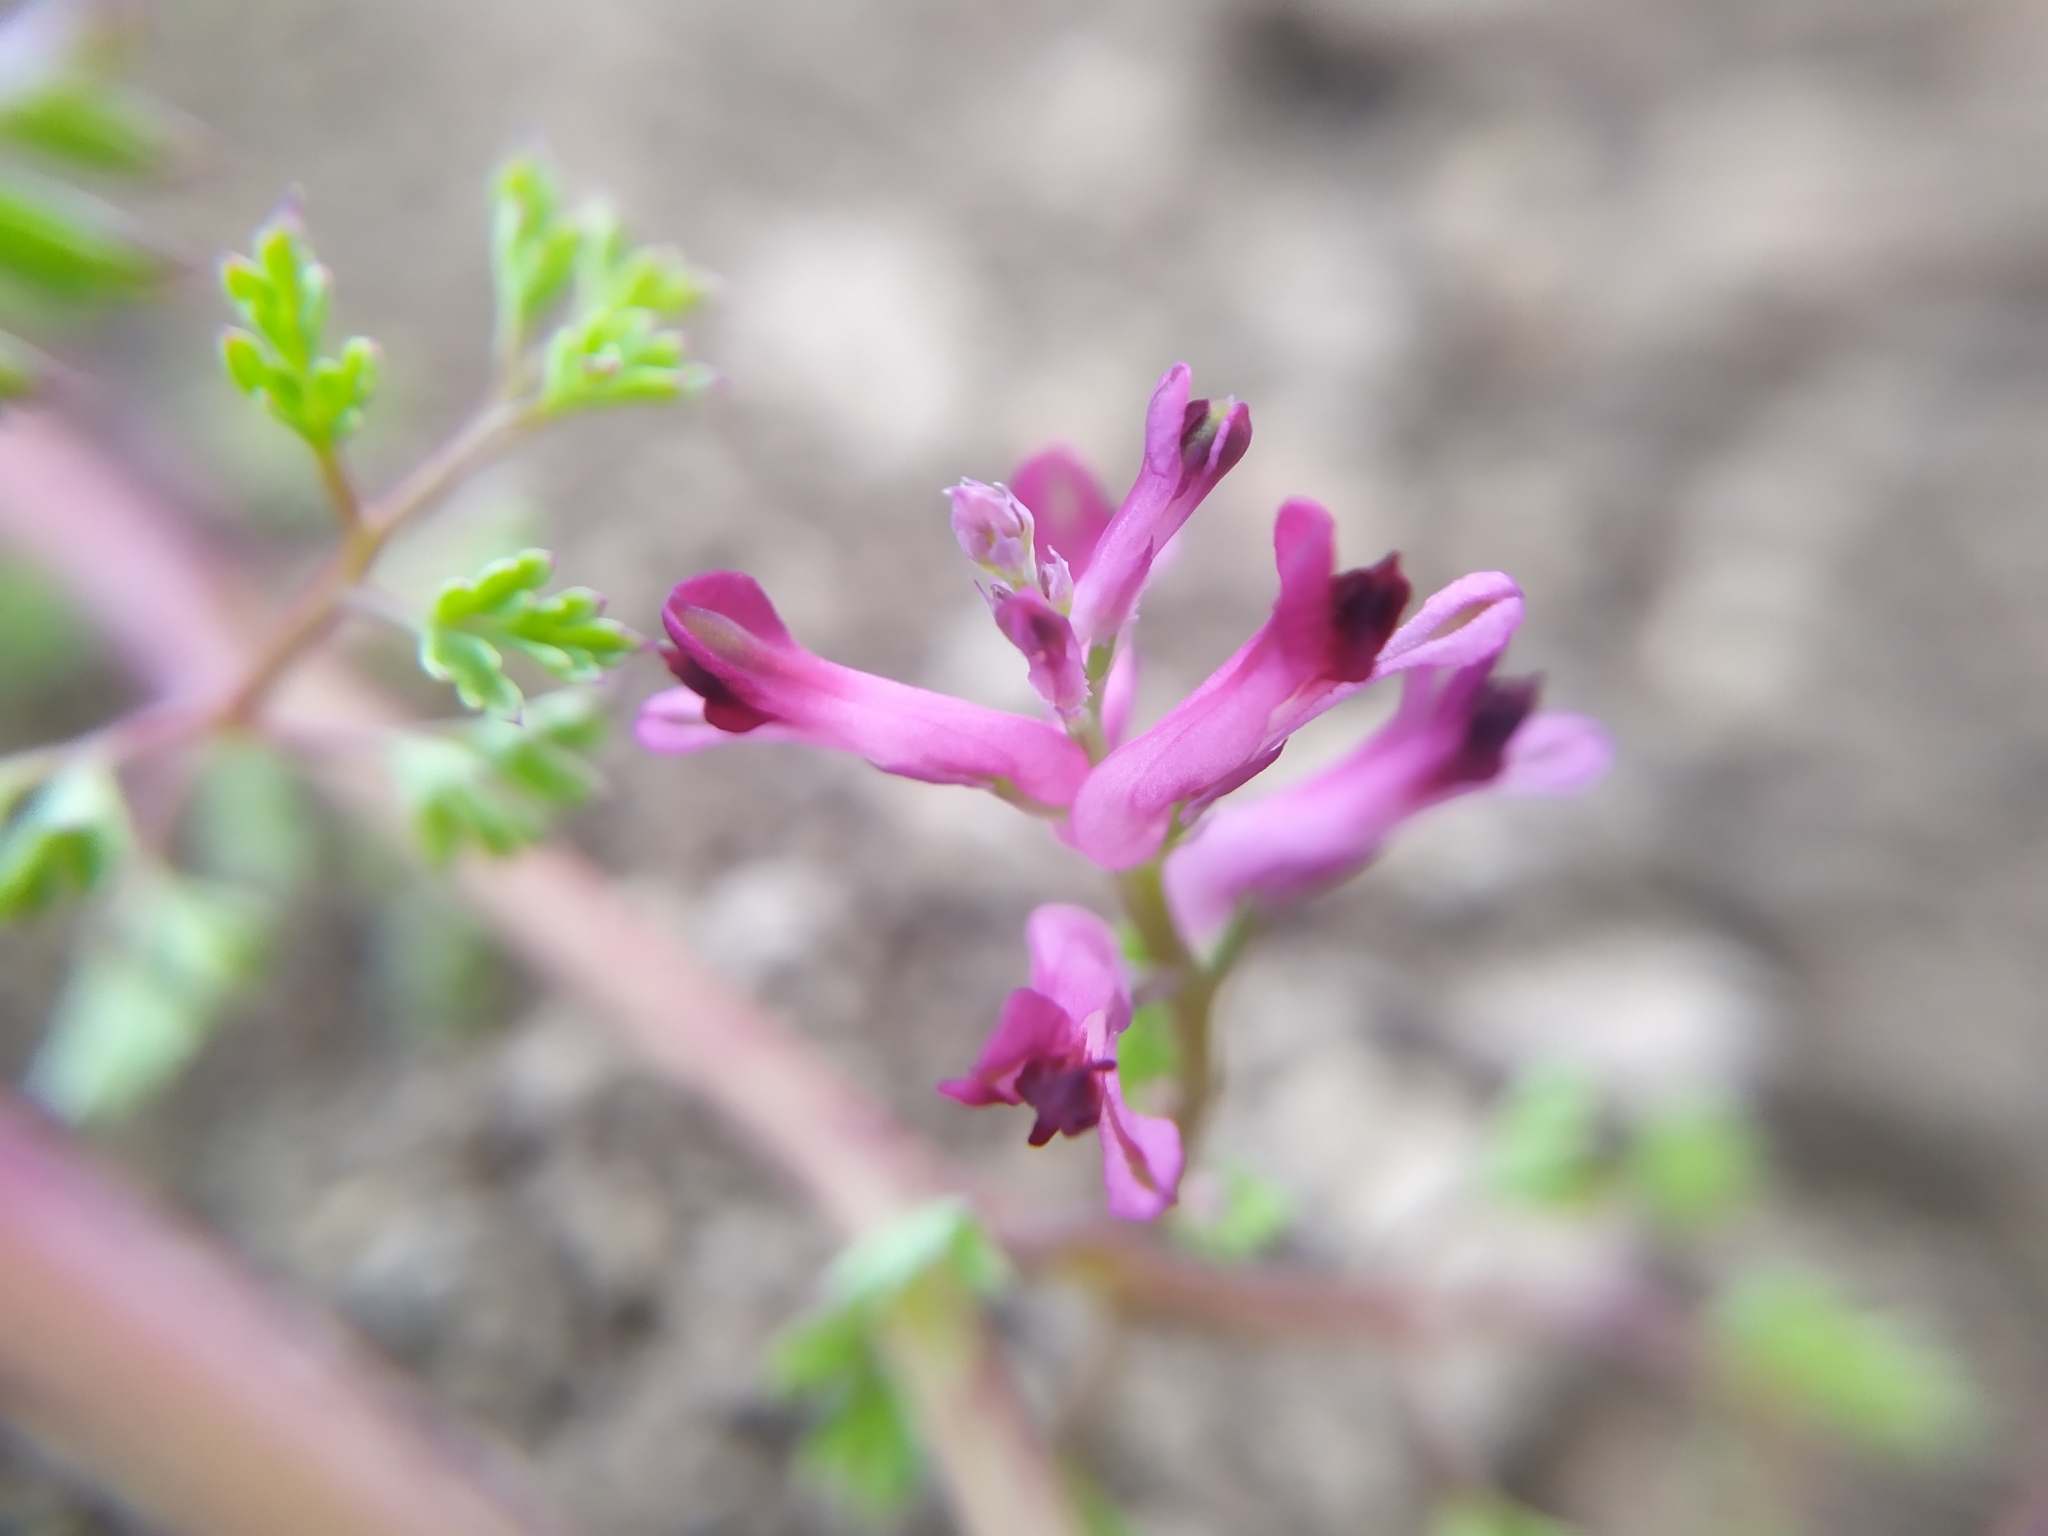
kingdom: Plantae
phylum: Tracheophyta
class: Magnoliopsida
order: Ranunculales
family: Papaveraceae
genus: Fumaria
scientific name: Fumaria officinalis
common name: Common fumitory
